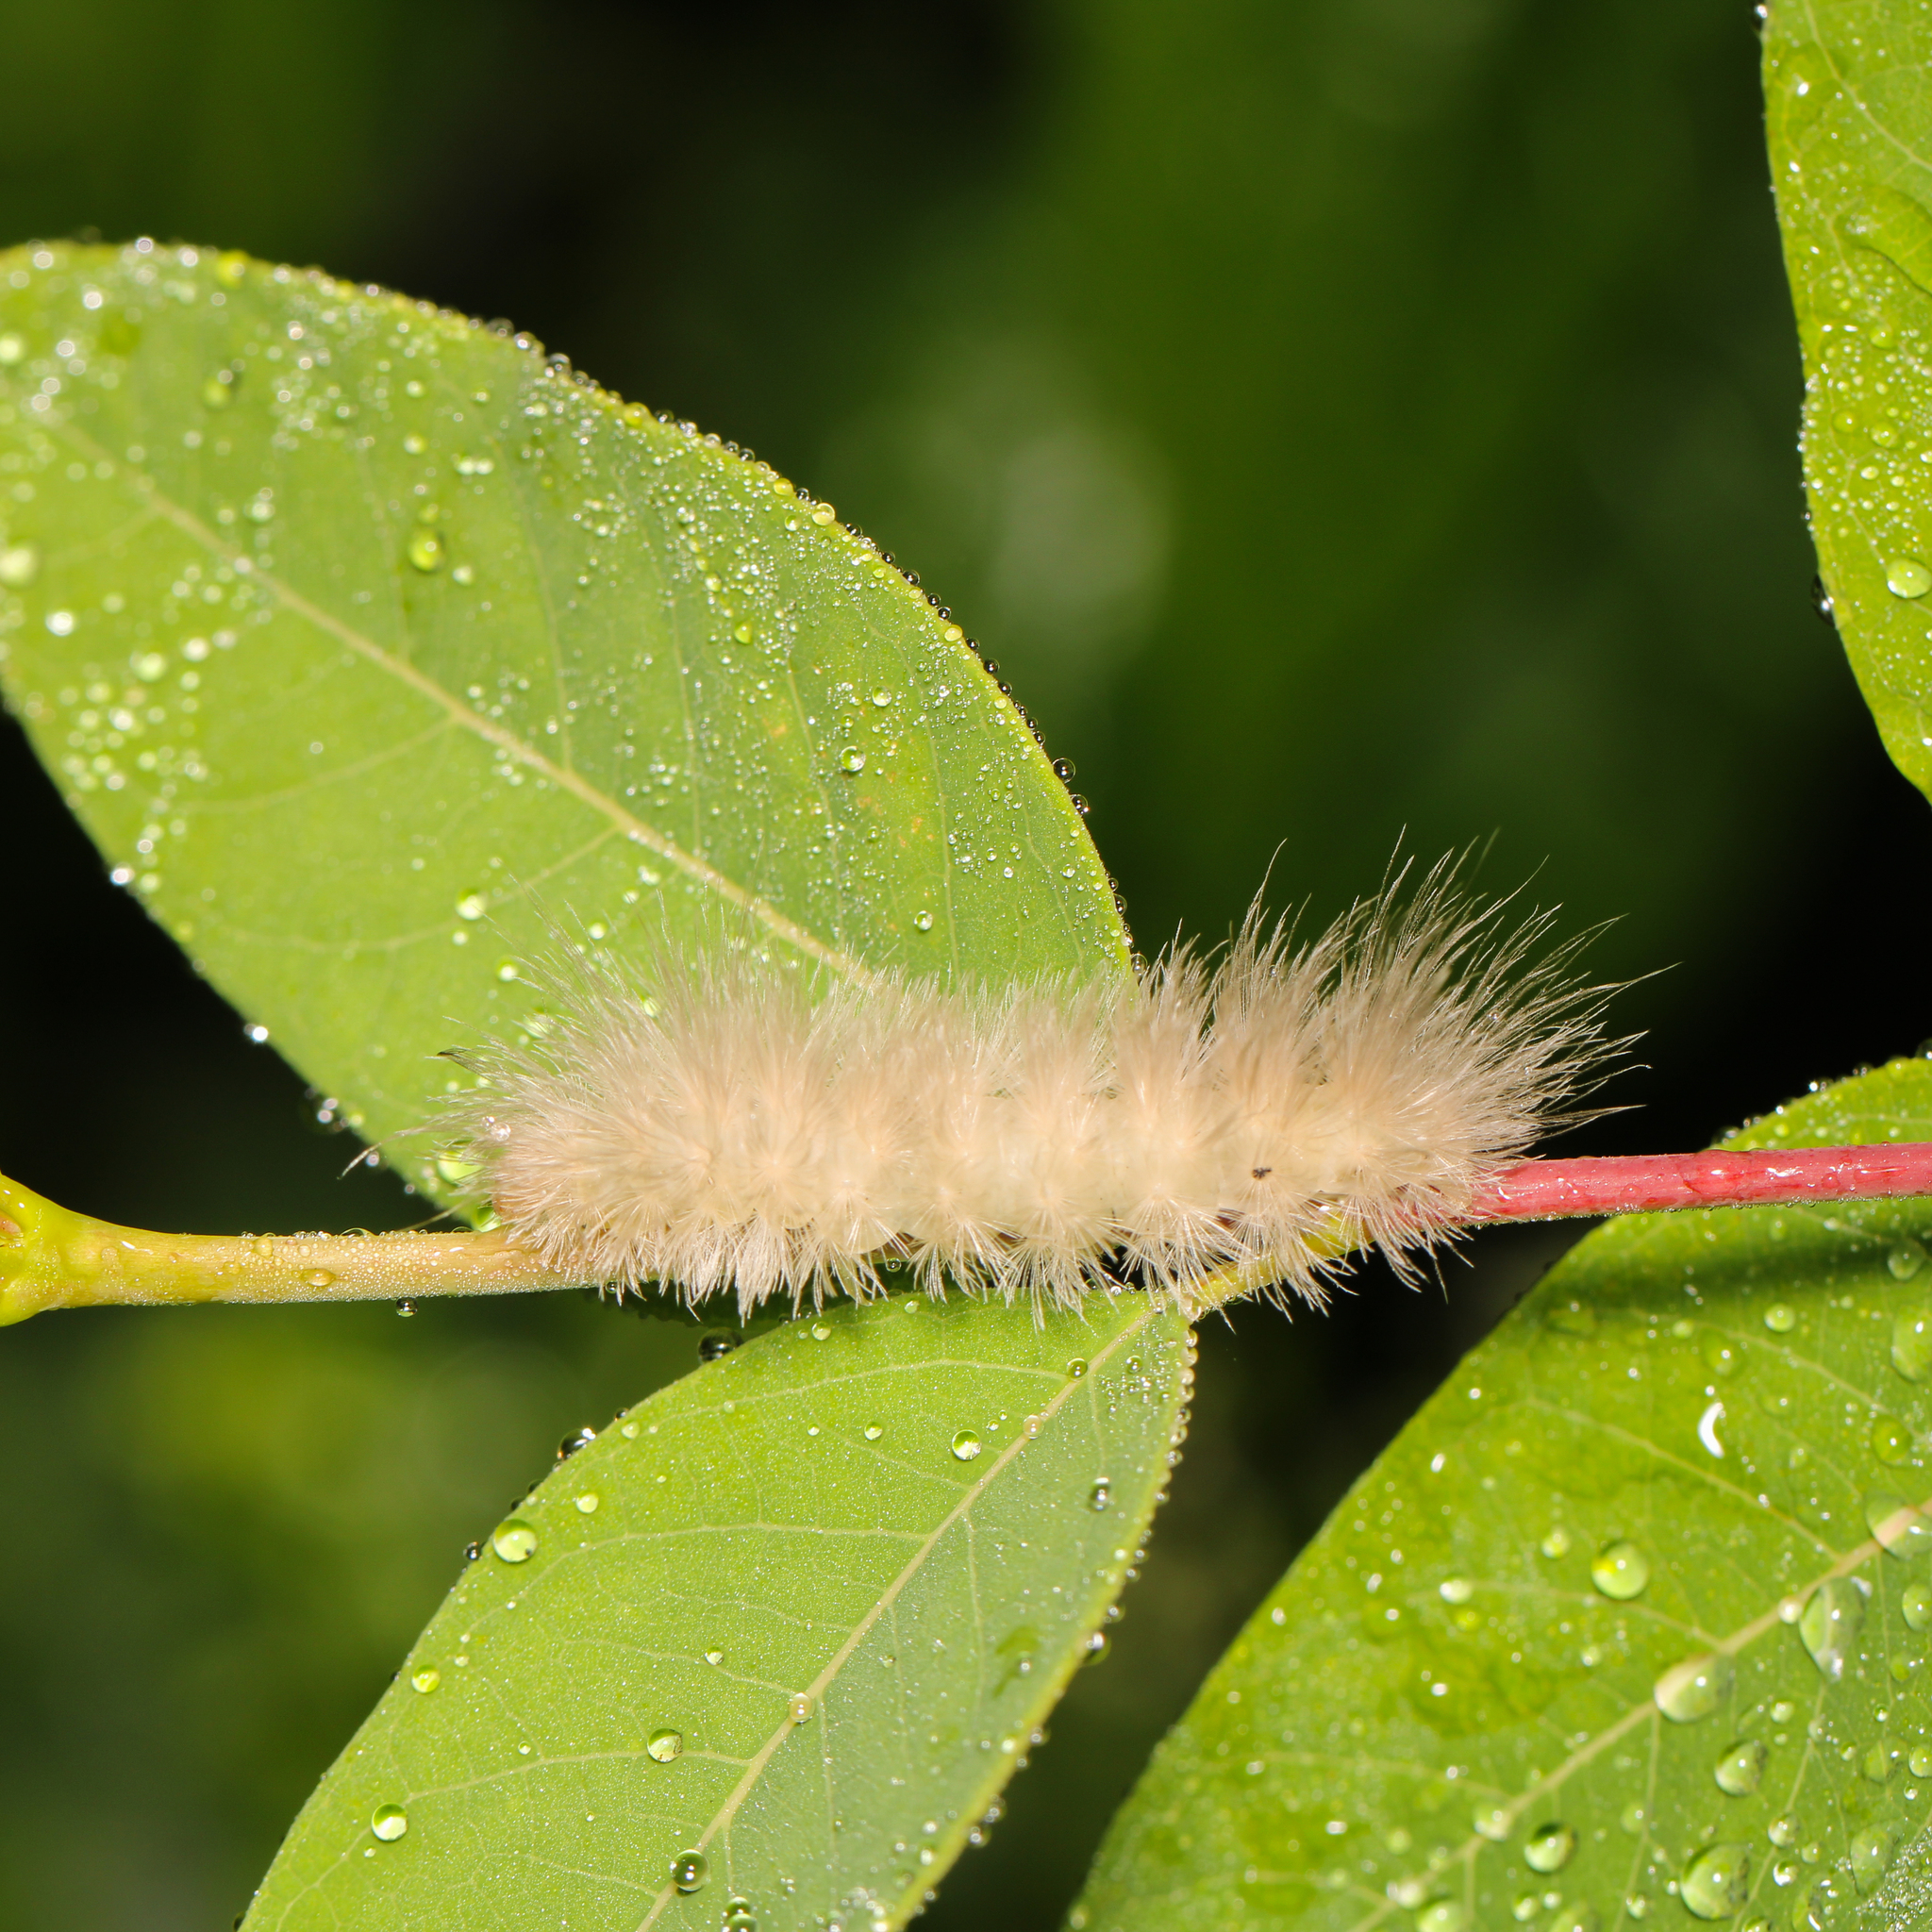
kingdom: Animalia
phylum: Arthropoda
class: Insecta
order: Lepidoptera
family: Erebidae
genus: Cycnia
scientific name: Cycnia tenera
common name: Delicate cycnia moth
